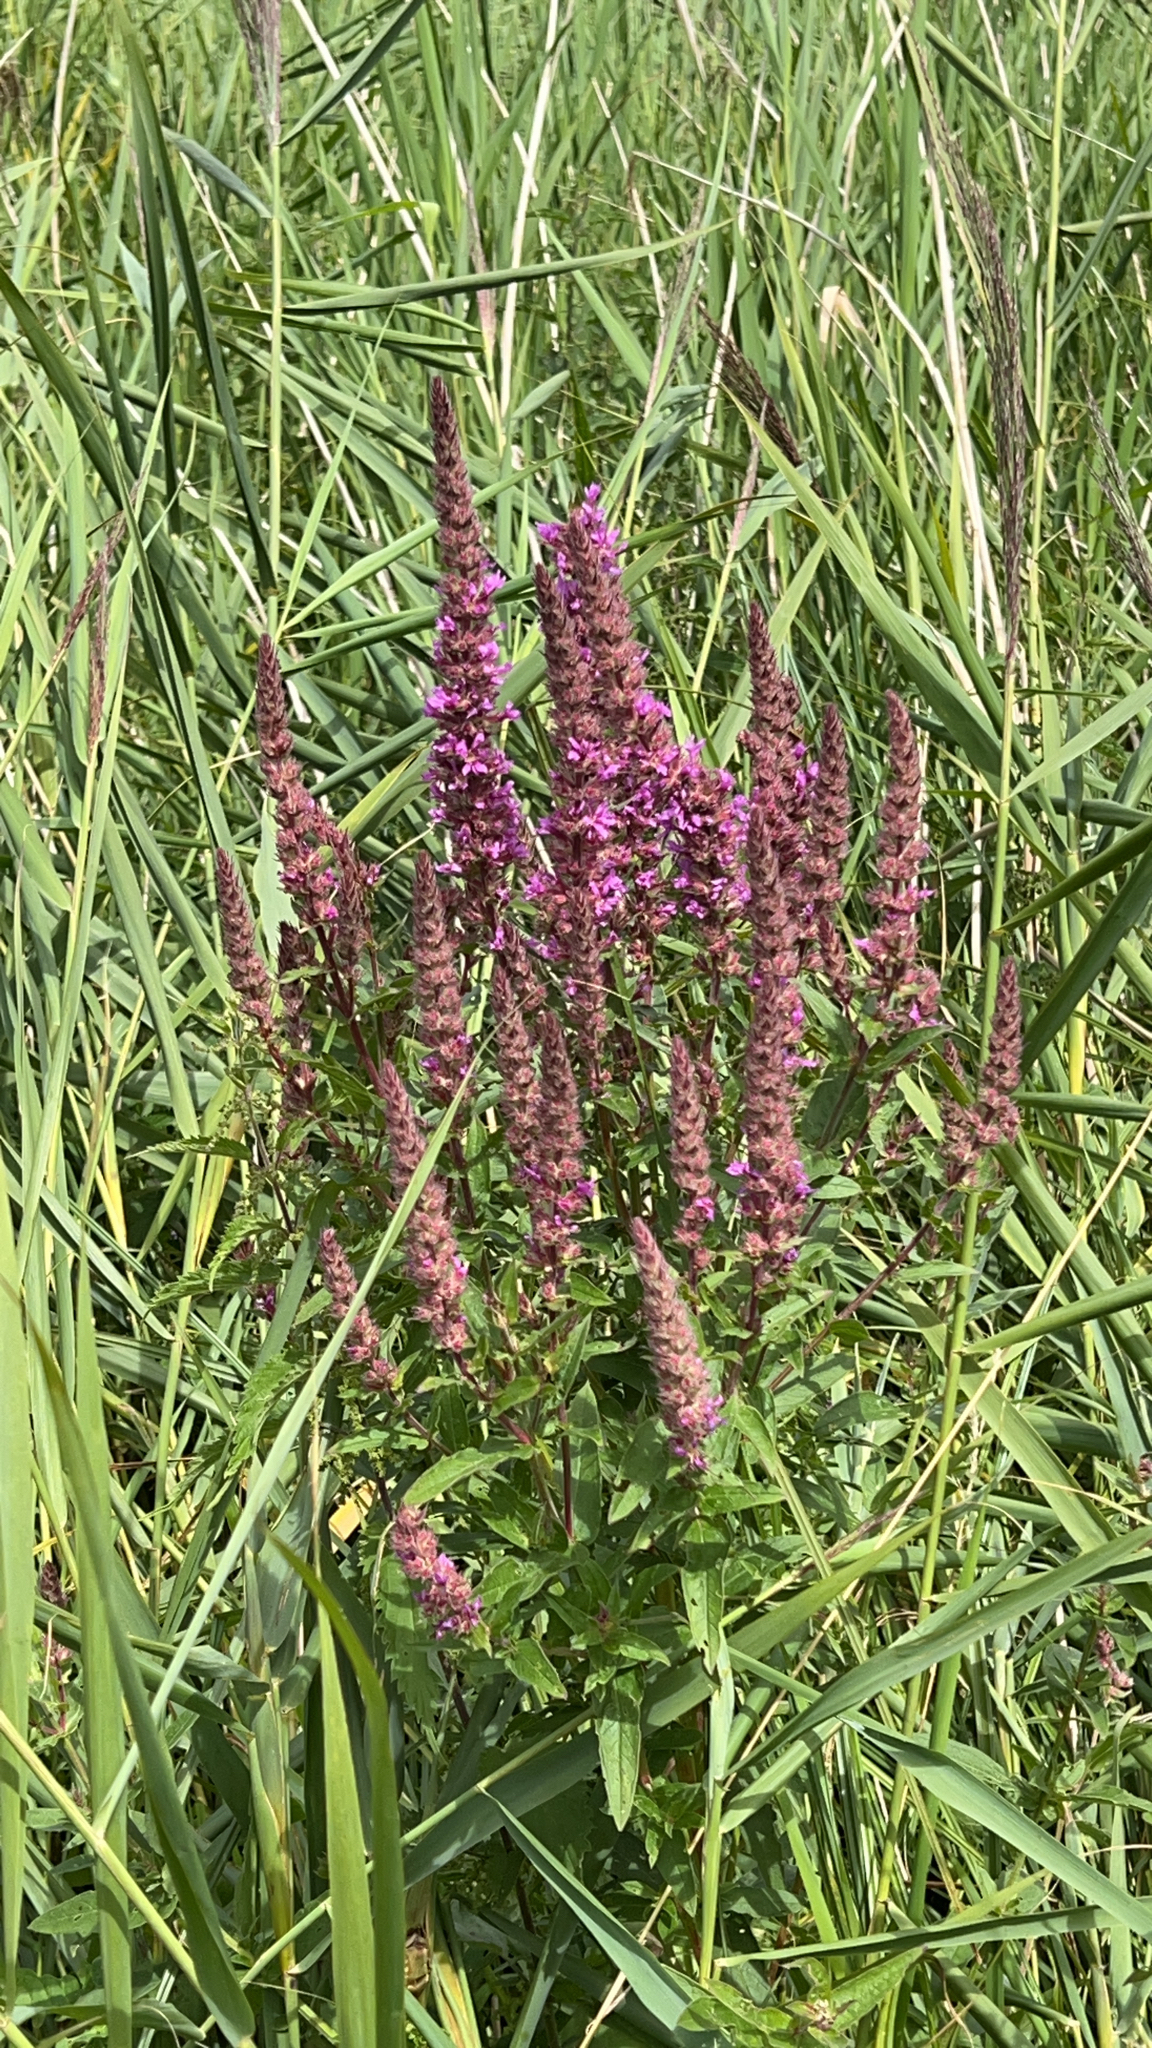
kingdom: Plantae
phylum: Tracheophyta
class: Magnoliopsida
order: Myrtales
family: Lythraceae
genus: Lythrum
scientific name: Lythrum salicaria
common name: Purple loosestrife
